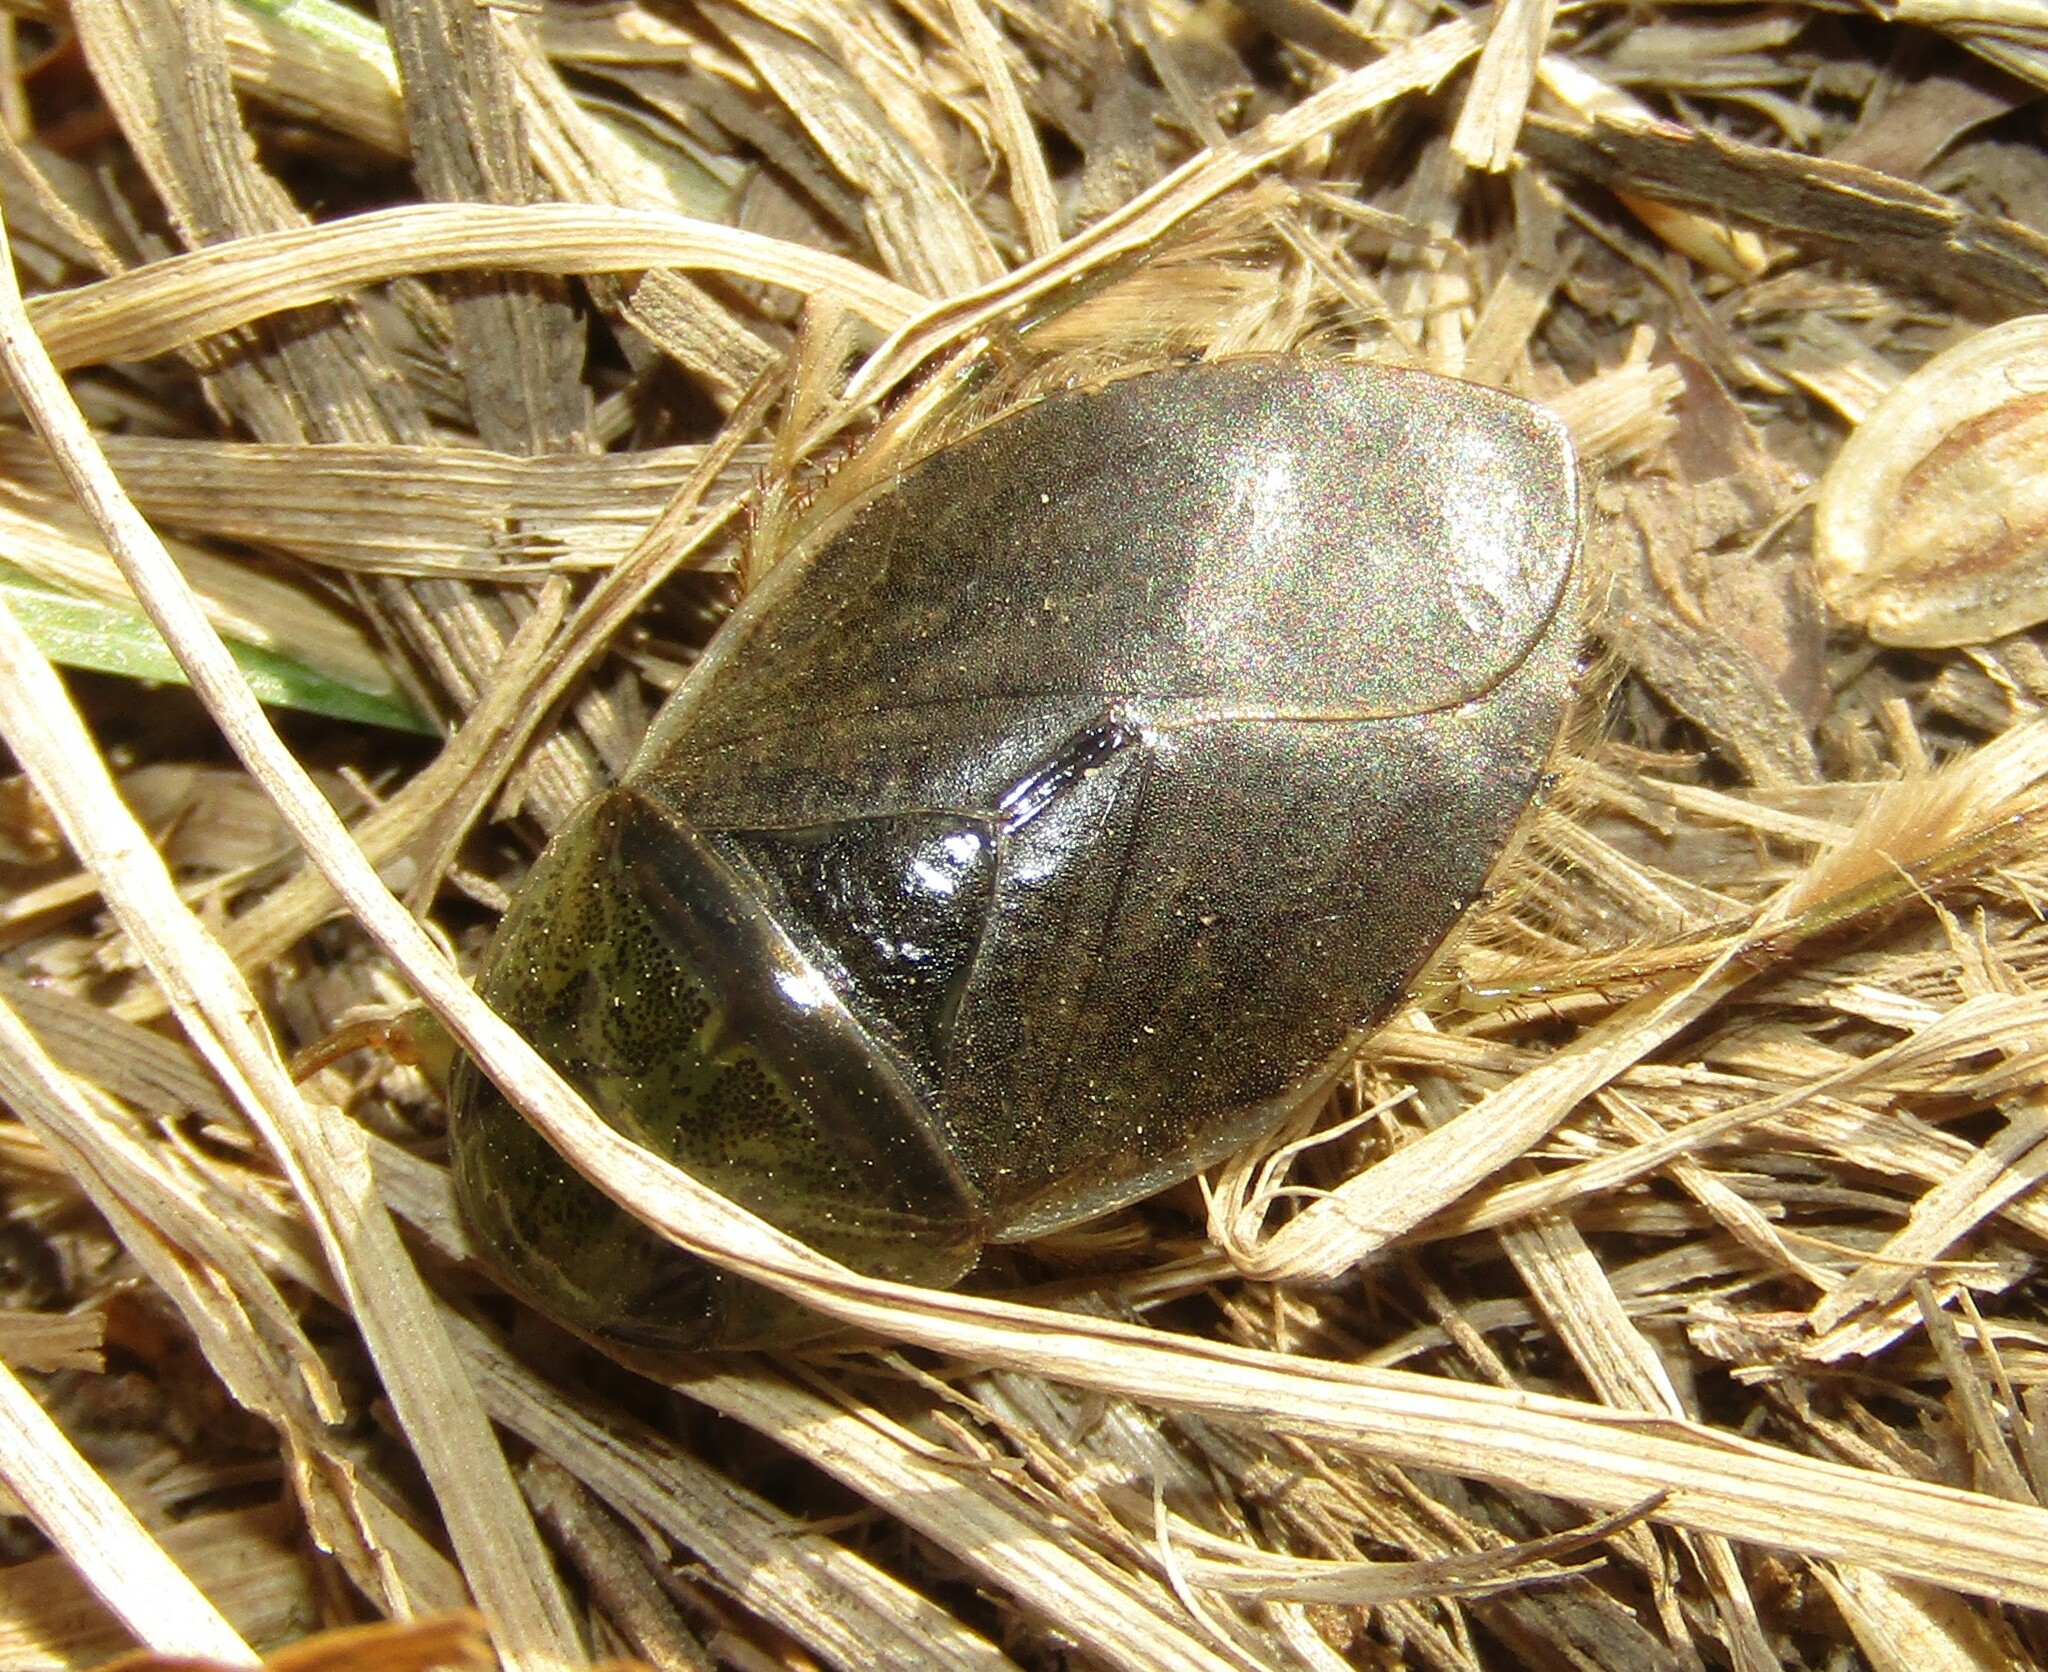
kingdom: Animalia
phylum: Arthropoda
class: Insecta
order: Hemiptera
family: Naucoridae
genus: Ilyocoris
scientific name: Ilyocoris cimicoides
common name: Saucer bugs
